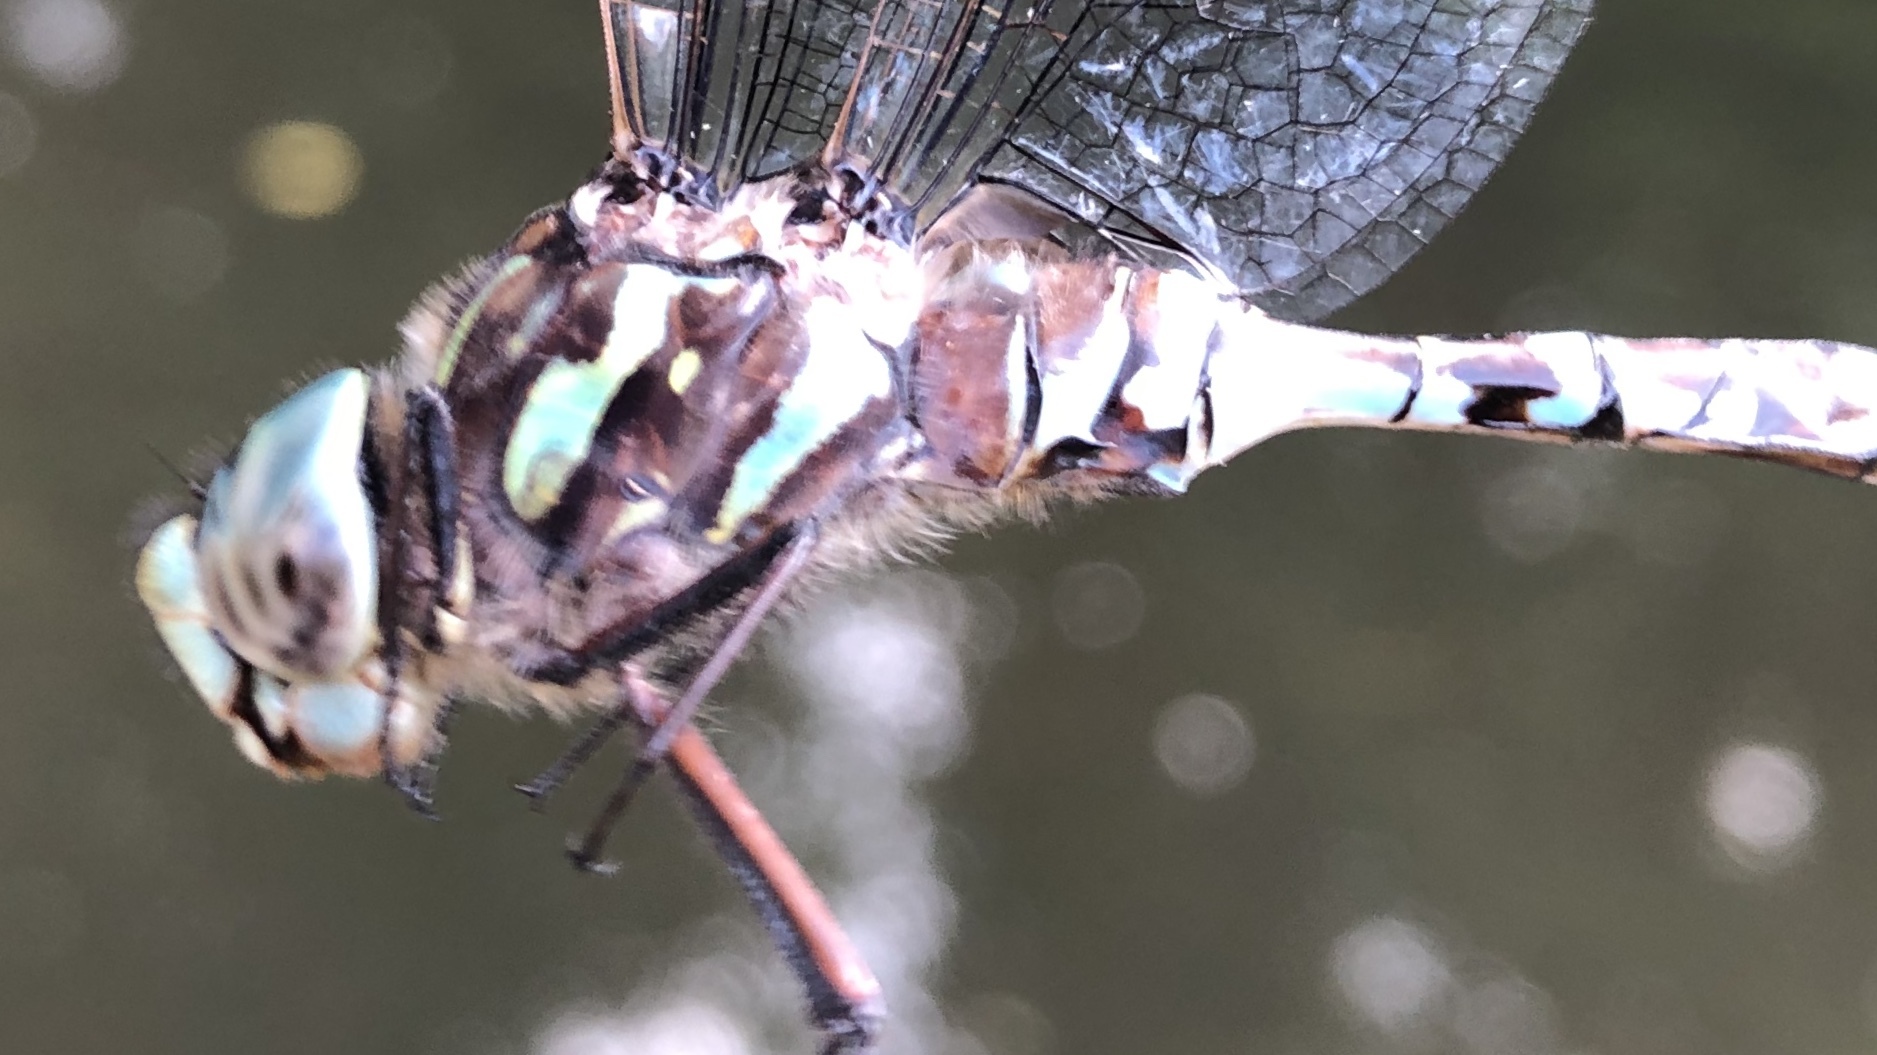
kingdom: Animalia
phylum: Arthropoda
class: Insecta
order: Odonata
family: Aeshnidae
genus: Aeshna
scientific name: Aeshna canadensis
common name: Canada darner
